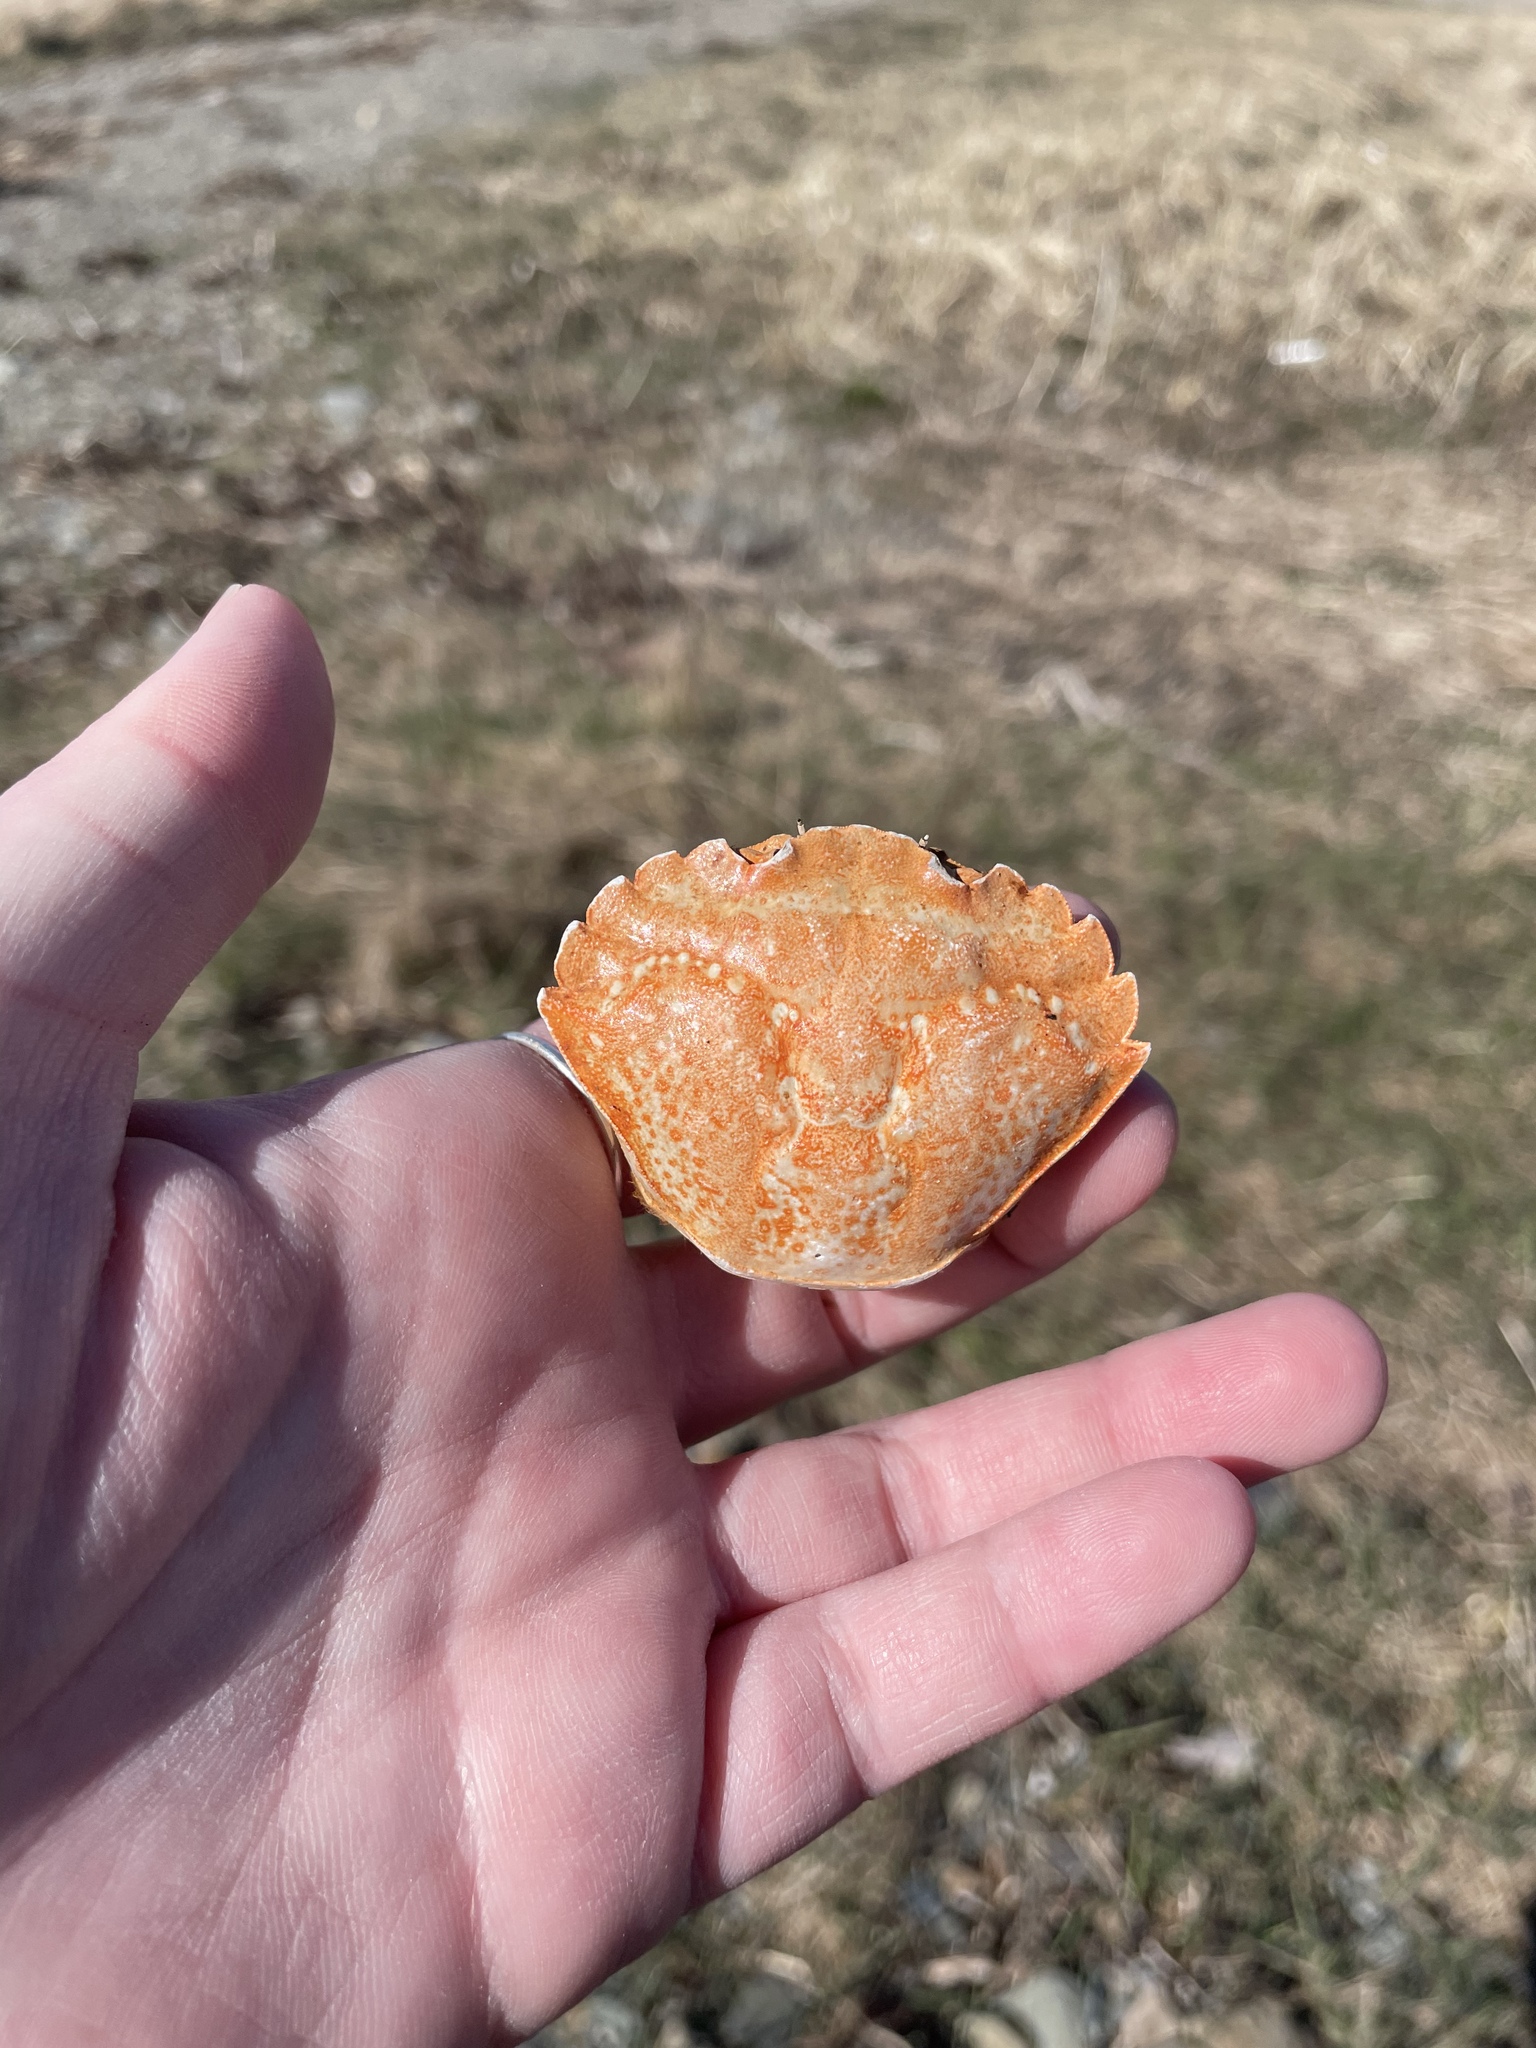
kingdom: Animalia
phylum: Arthropoda
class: Malacostraca
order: Decapoda
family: Carcinidae
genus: Carcinus
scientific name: Carcinus maenas
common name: European green crab
